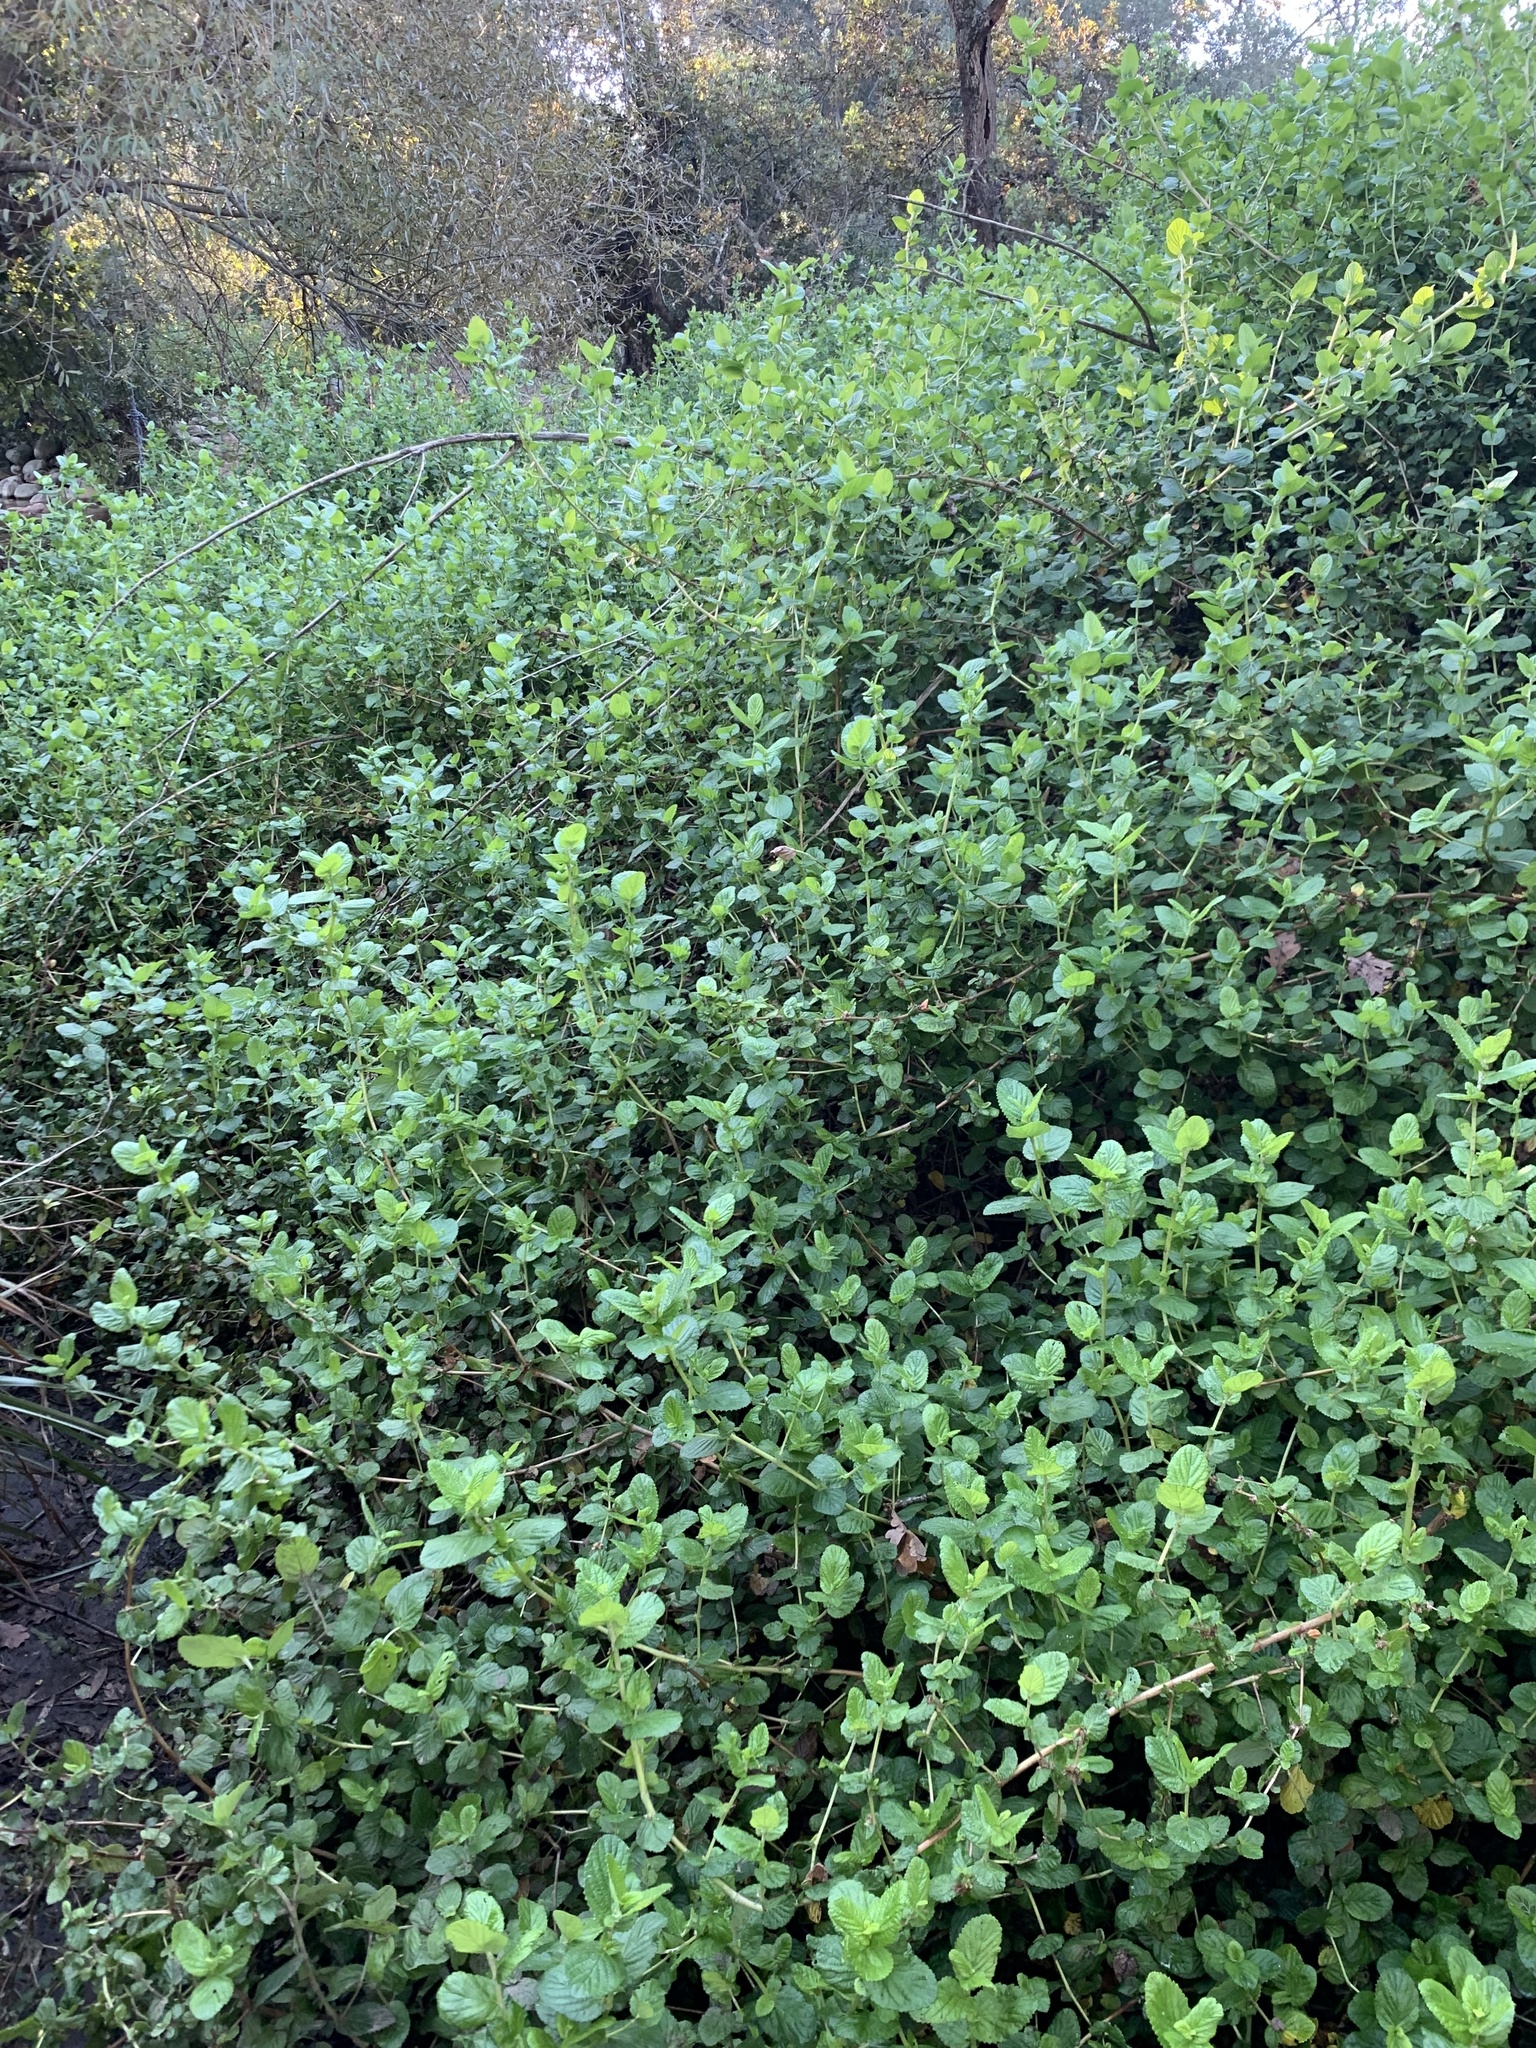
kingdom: Plantae
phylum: Tracheophyta
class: Magnoliopsida
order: Rosales
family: Rosaceae
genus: Cliffortia
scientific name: Cliffortia odorata
